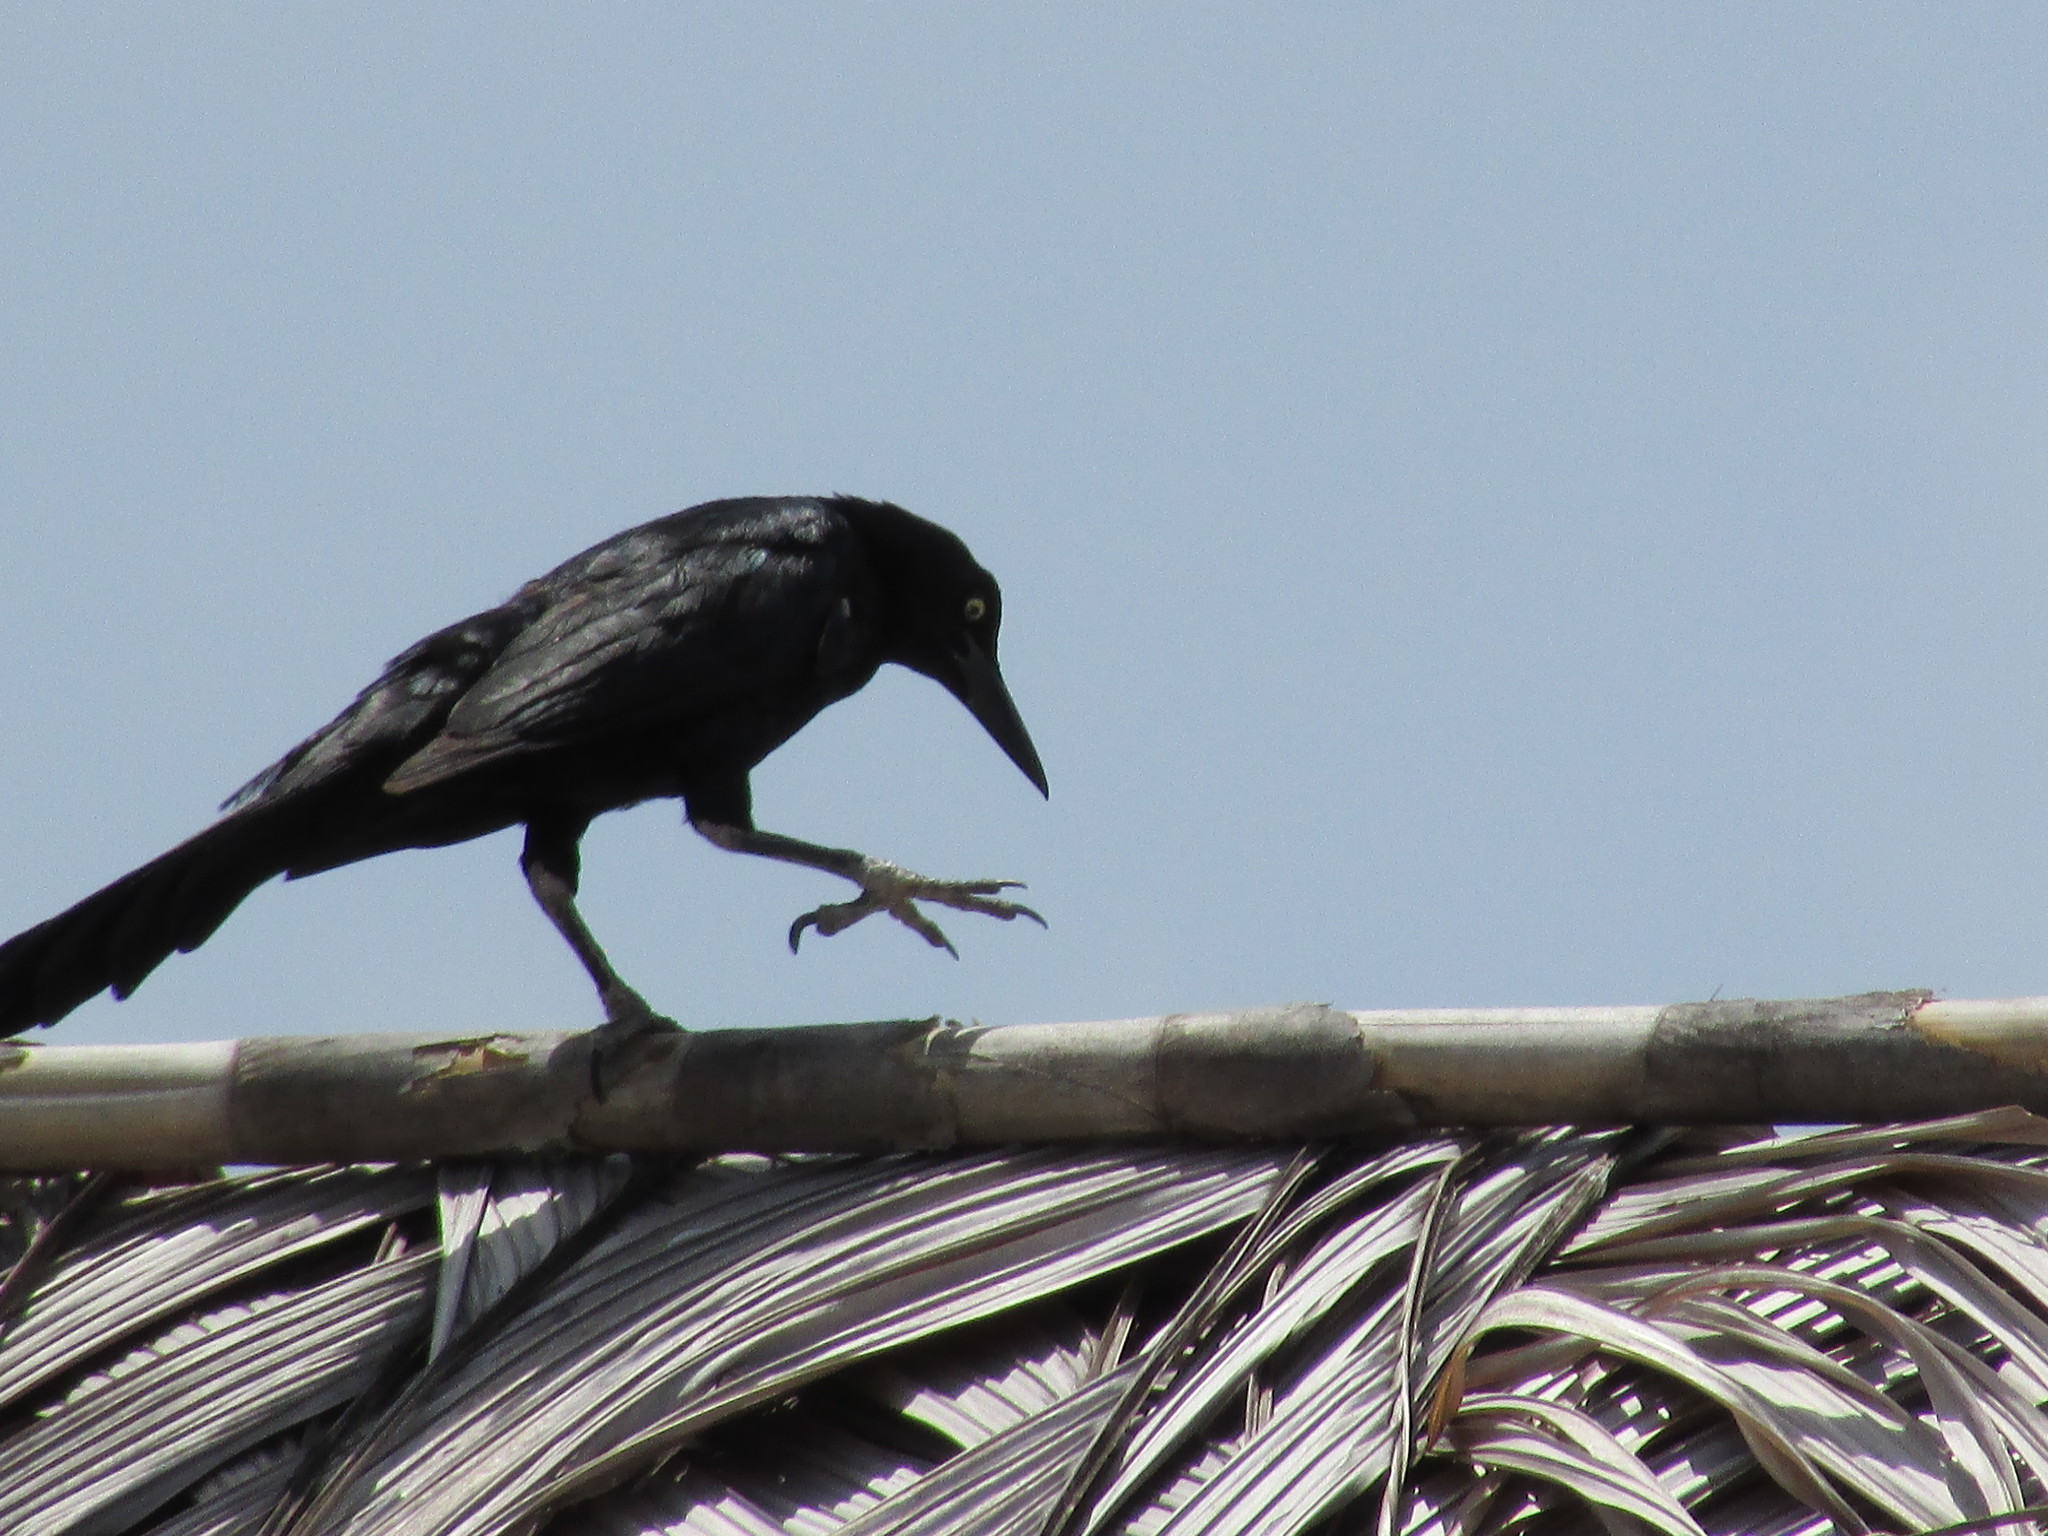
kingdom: Animalia
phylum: Chordata
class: Aves
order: Passeriformes
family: Icteridae
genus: Quiscalus
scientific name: Quiscalus mexicanus
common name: Great-tailed grackle
